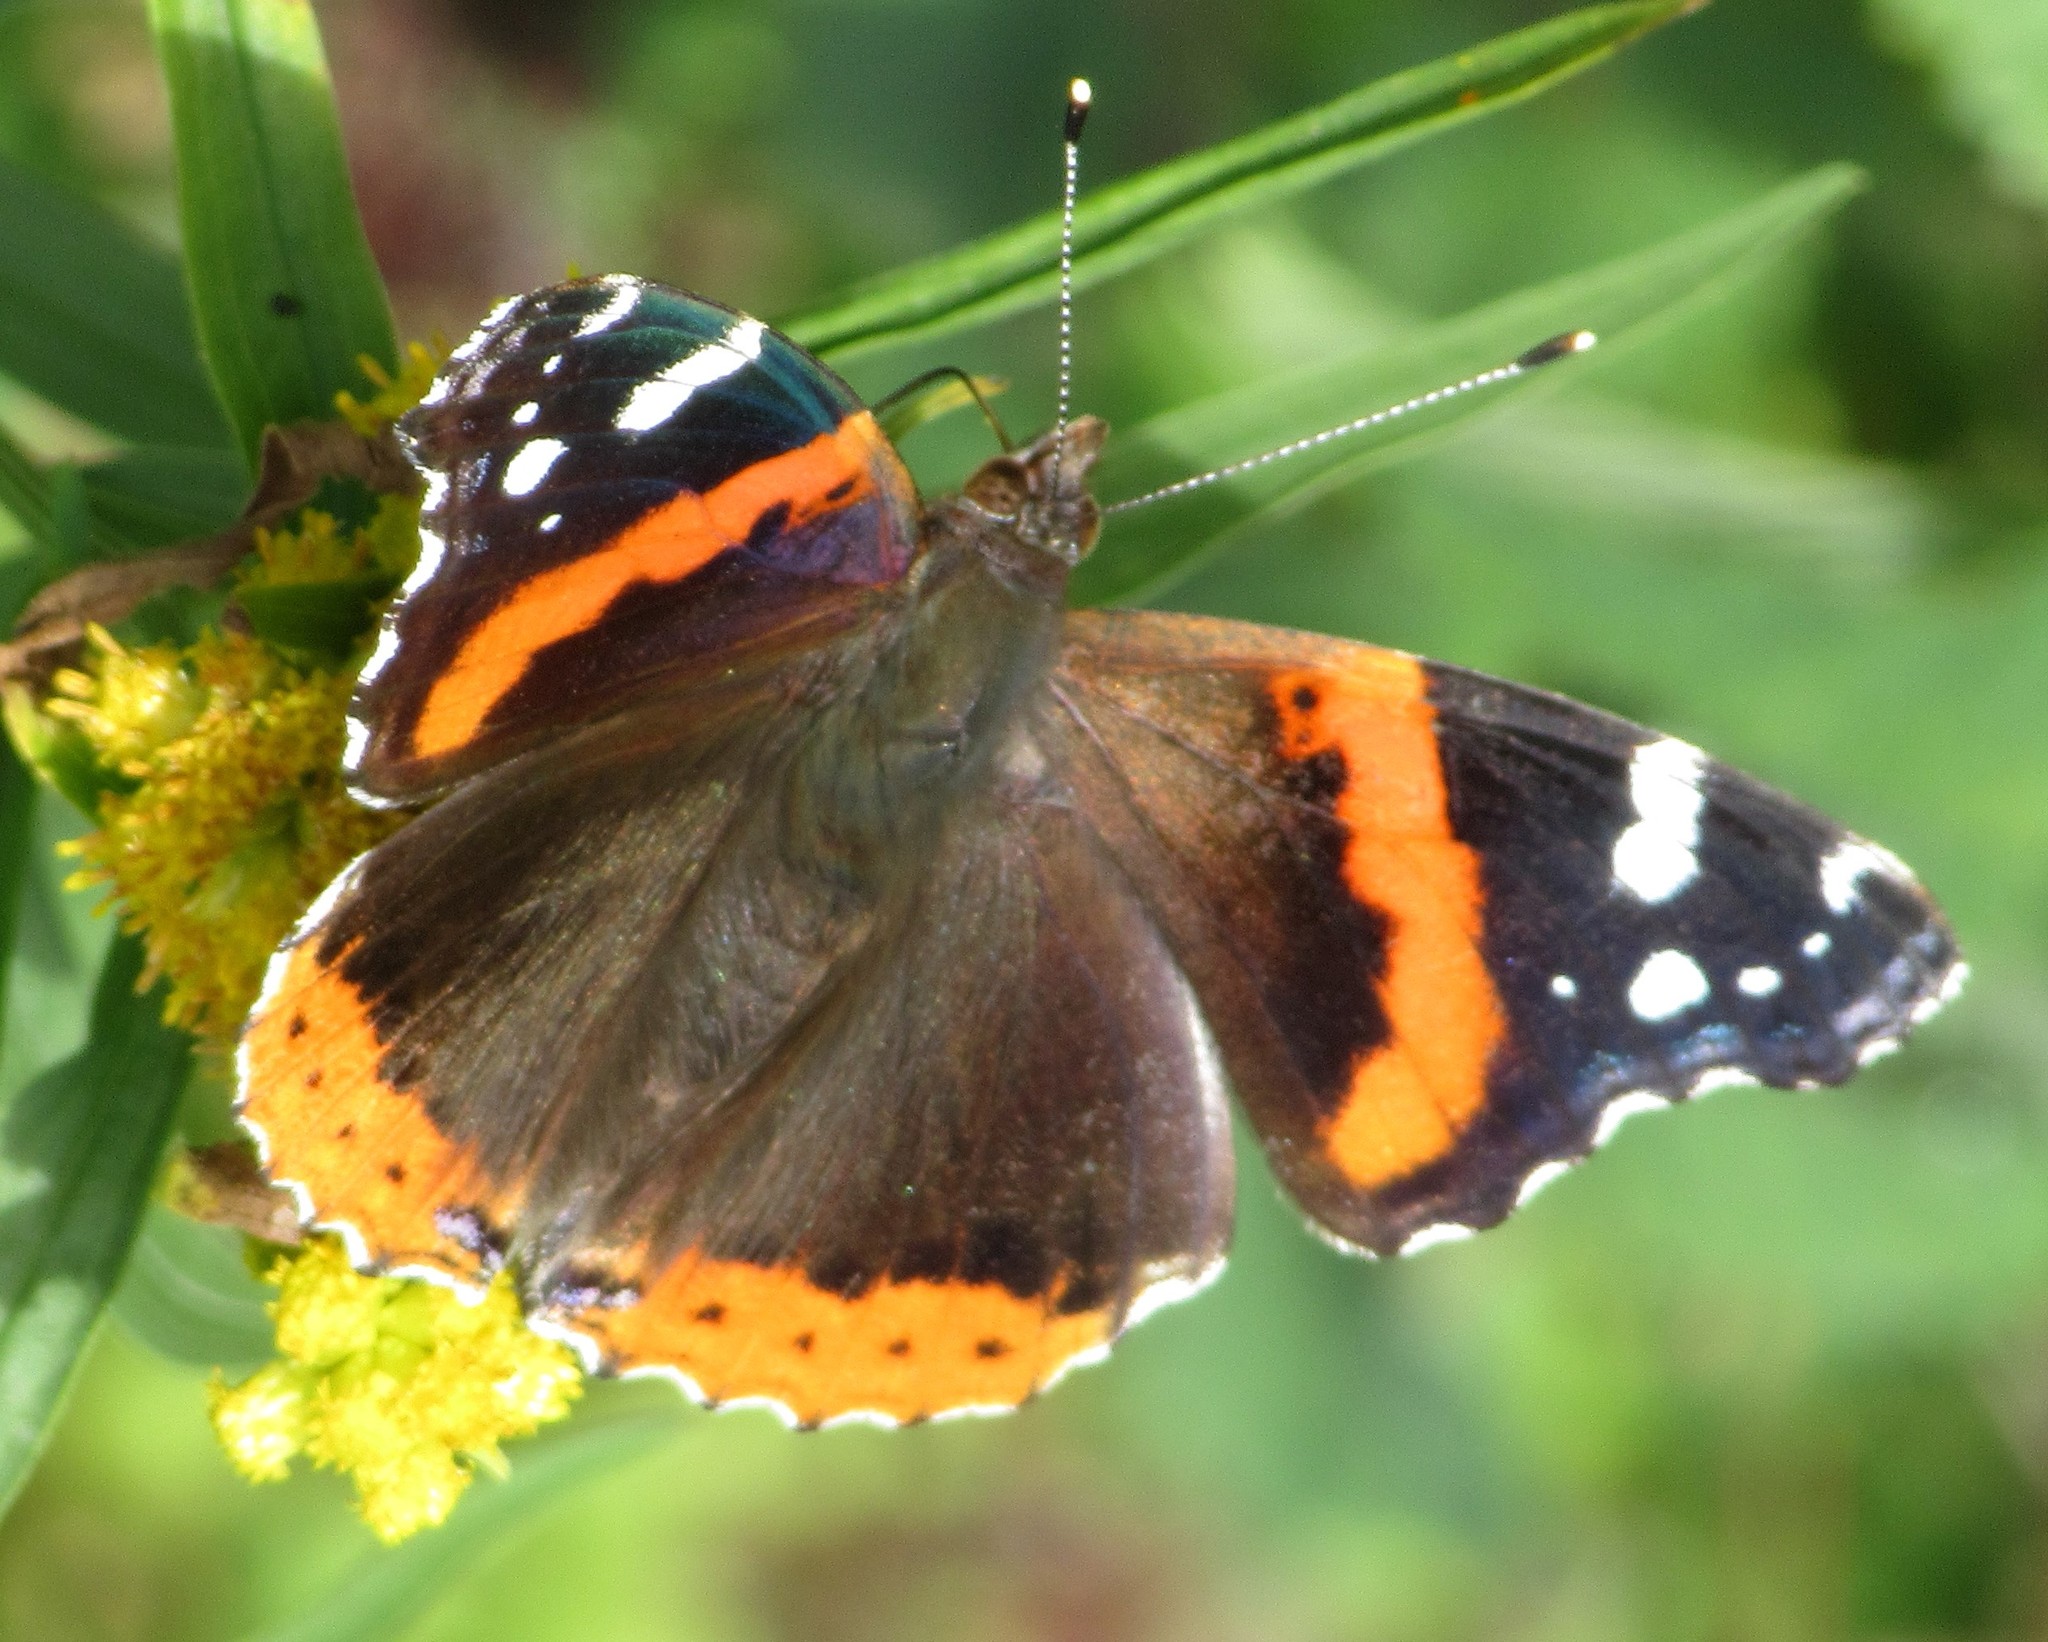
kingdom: Animalia
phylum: Arthropoda
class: Insecta
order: Lepidoptera
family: Nymphalidae
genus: Vanessa
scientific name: Vanessa atalanta
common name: Red admiral
